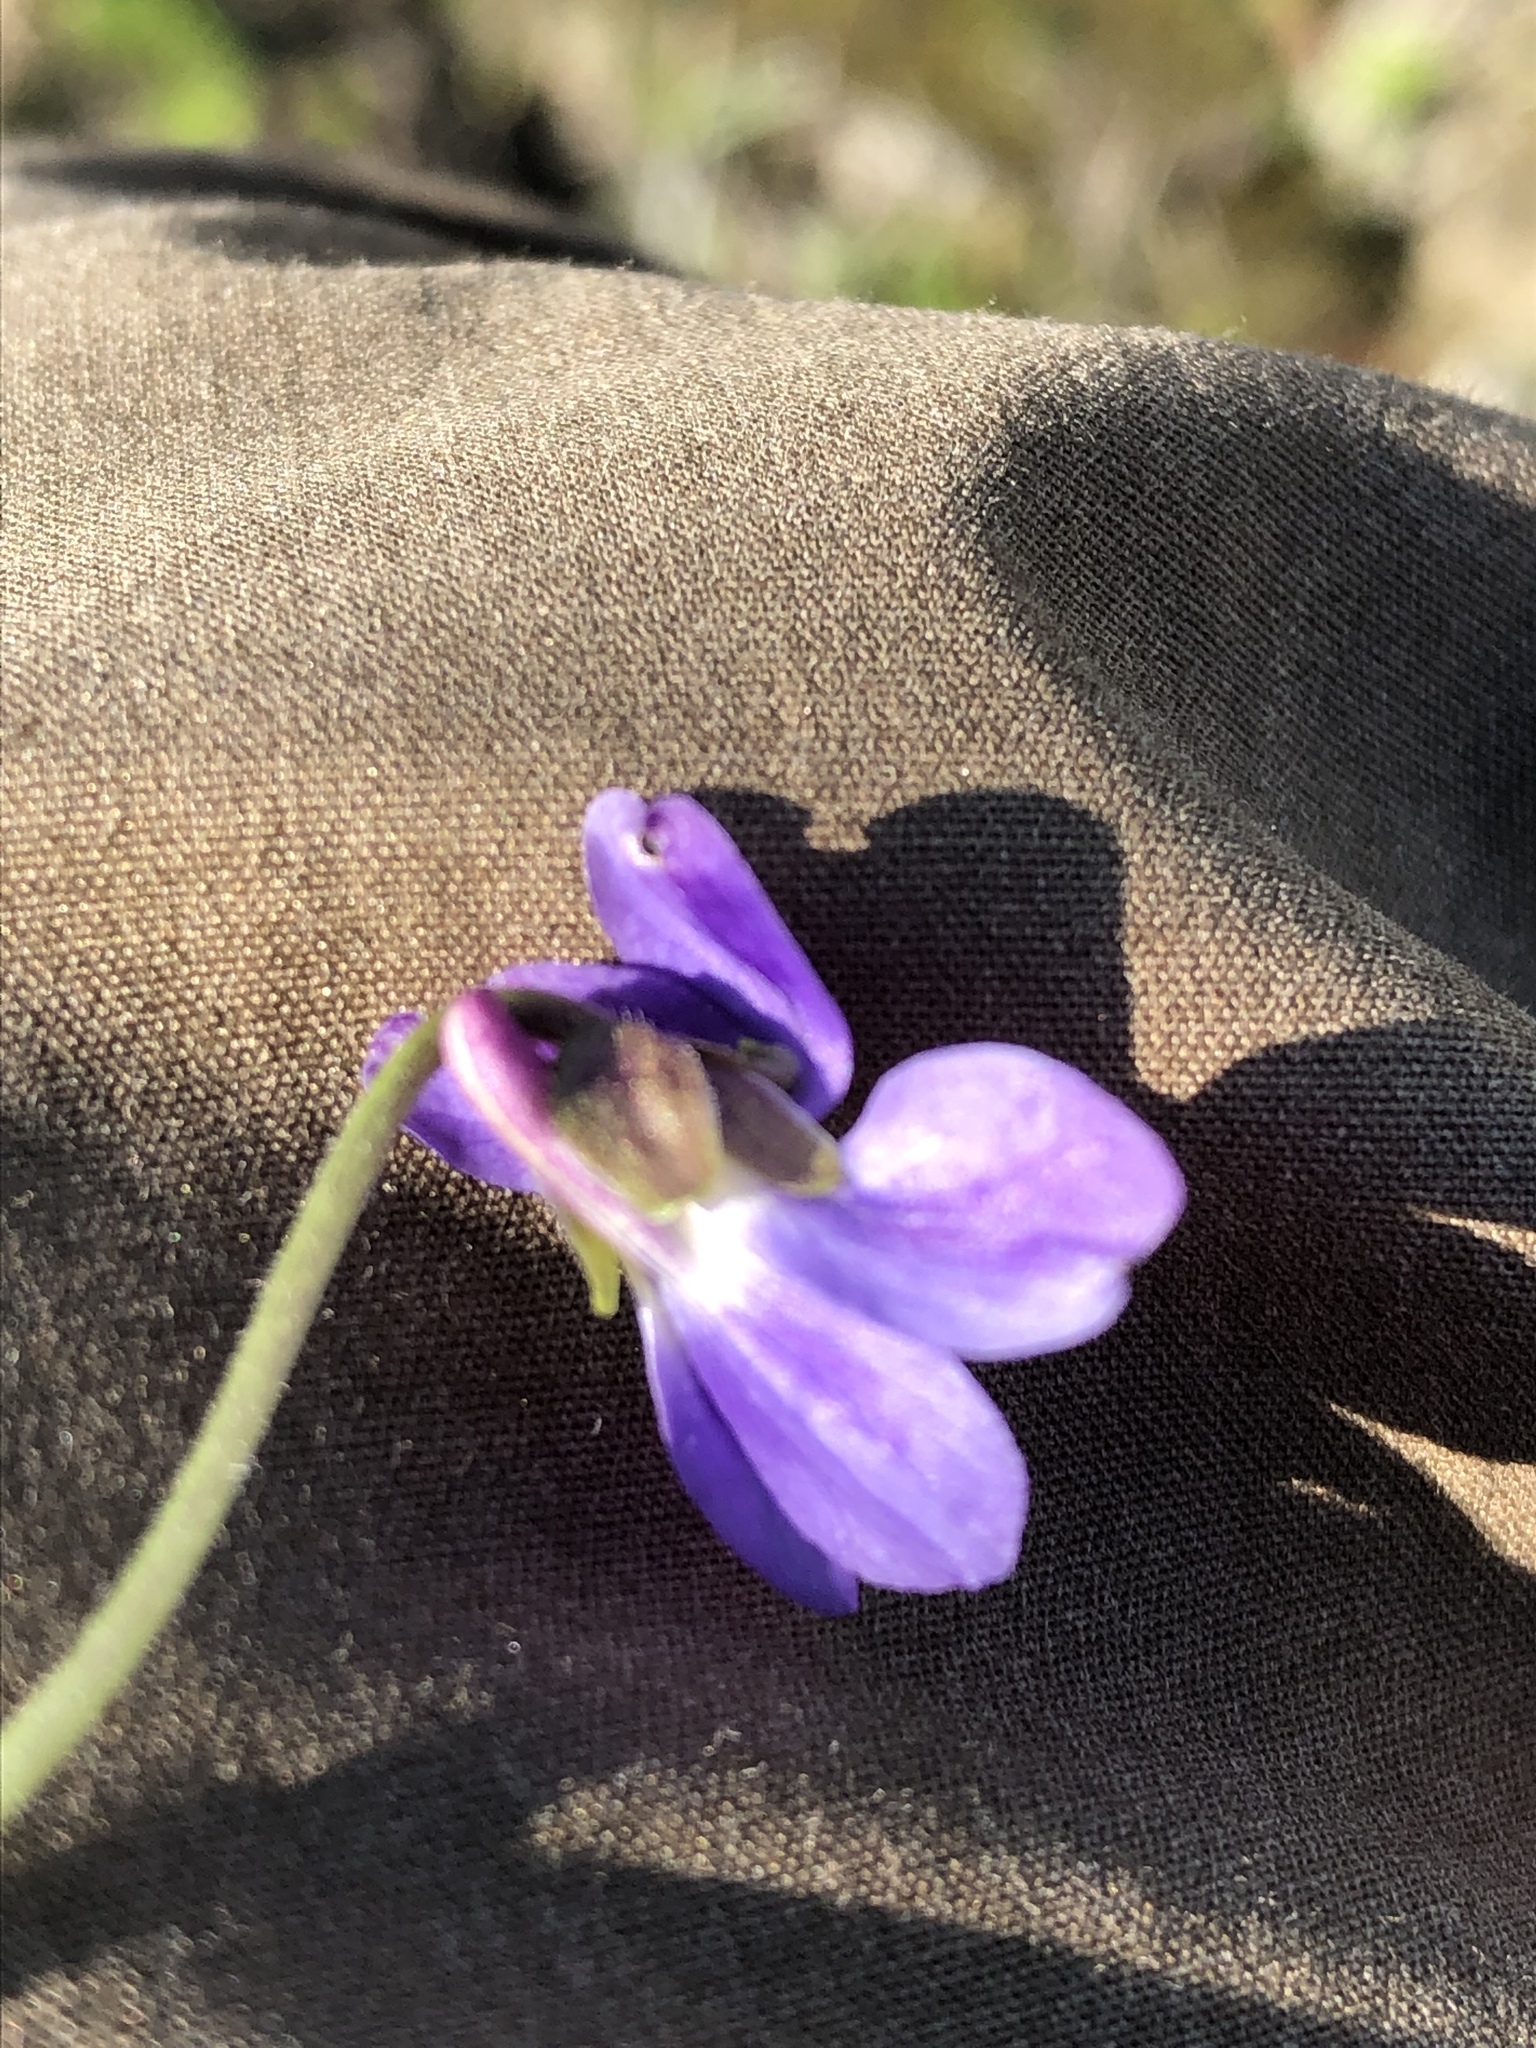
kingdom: Plantae
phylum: Tracheophyta
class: Magnoliopsida
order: Malpighiales
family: Violaceae
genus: Viola
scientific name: Viola hirta
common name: Hairy violet
